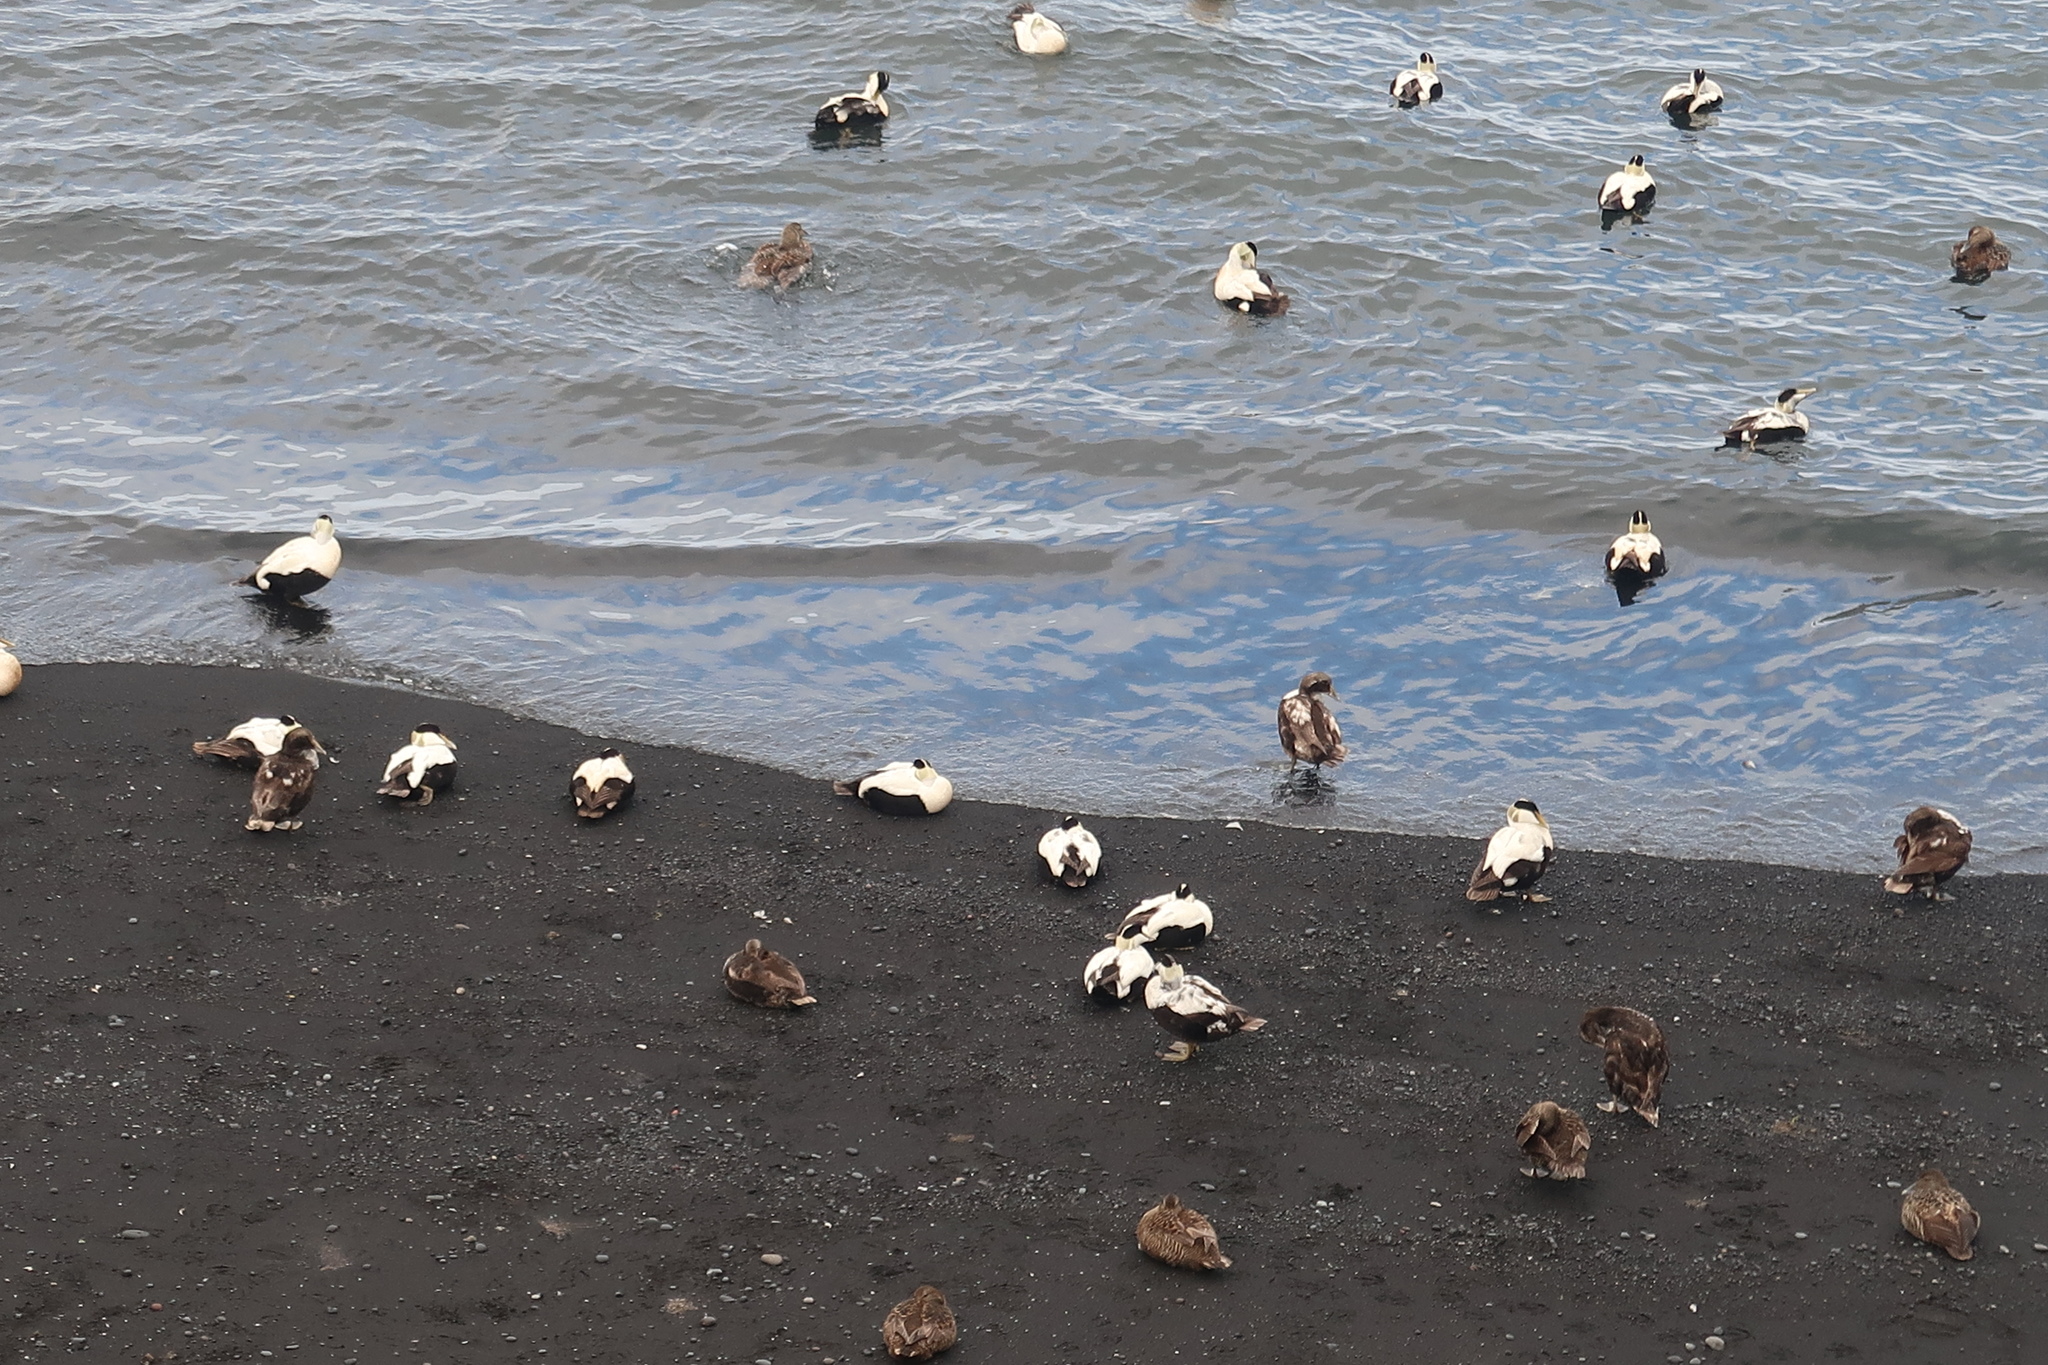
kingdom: Animalia
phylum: Chordata
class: Aves
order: Anseriformes
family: Anatidae
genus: Somateria
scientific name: Somateria mollissima
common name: Common eider
